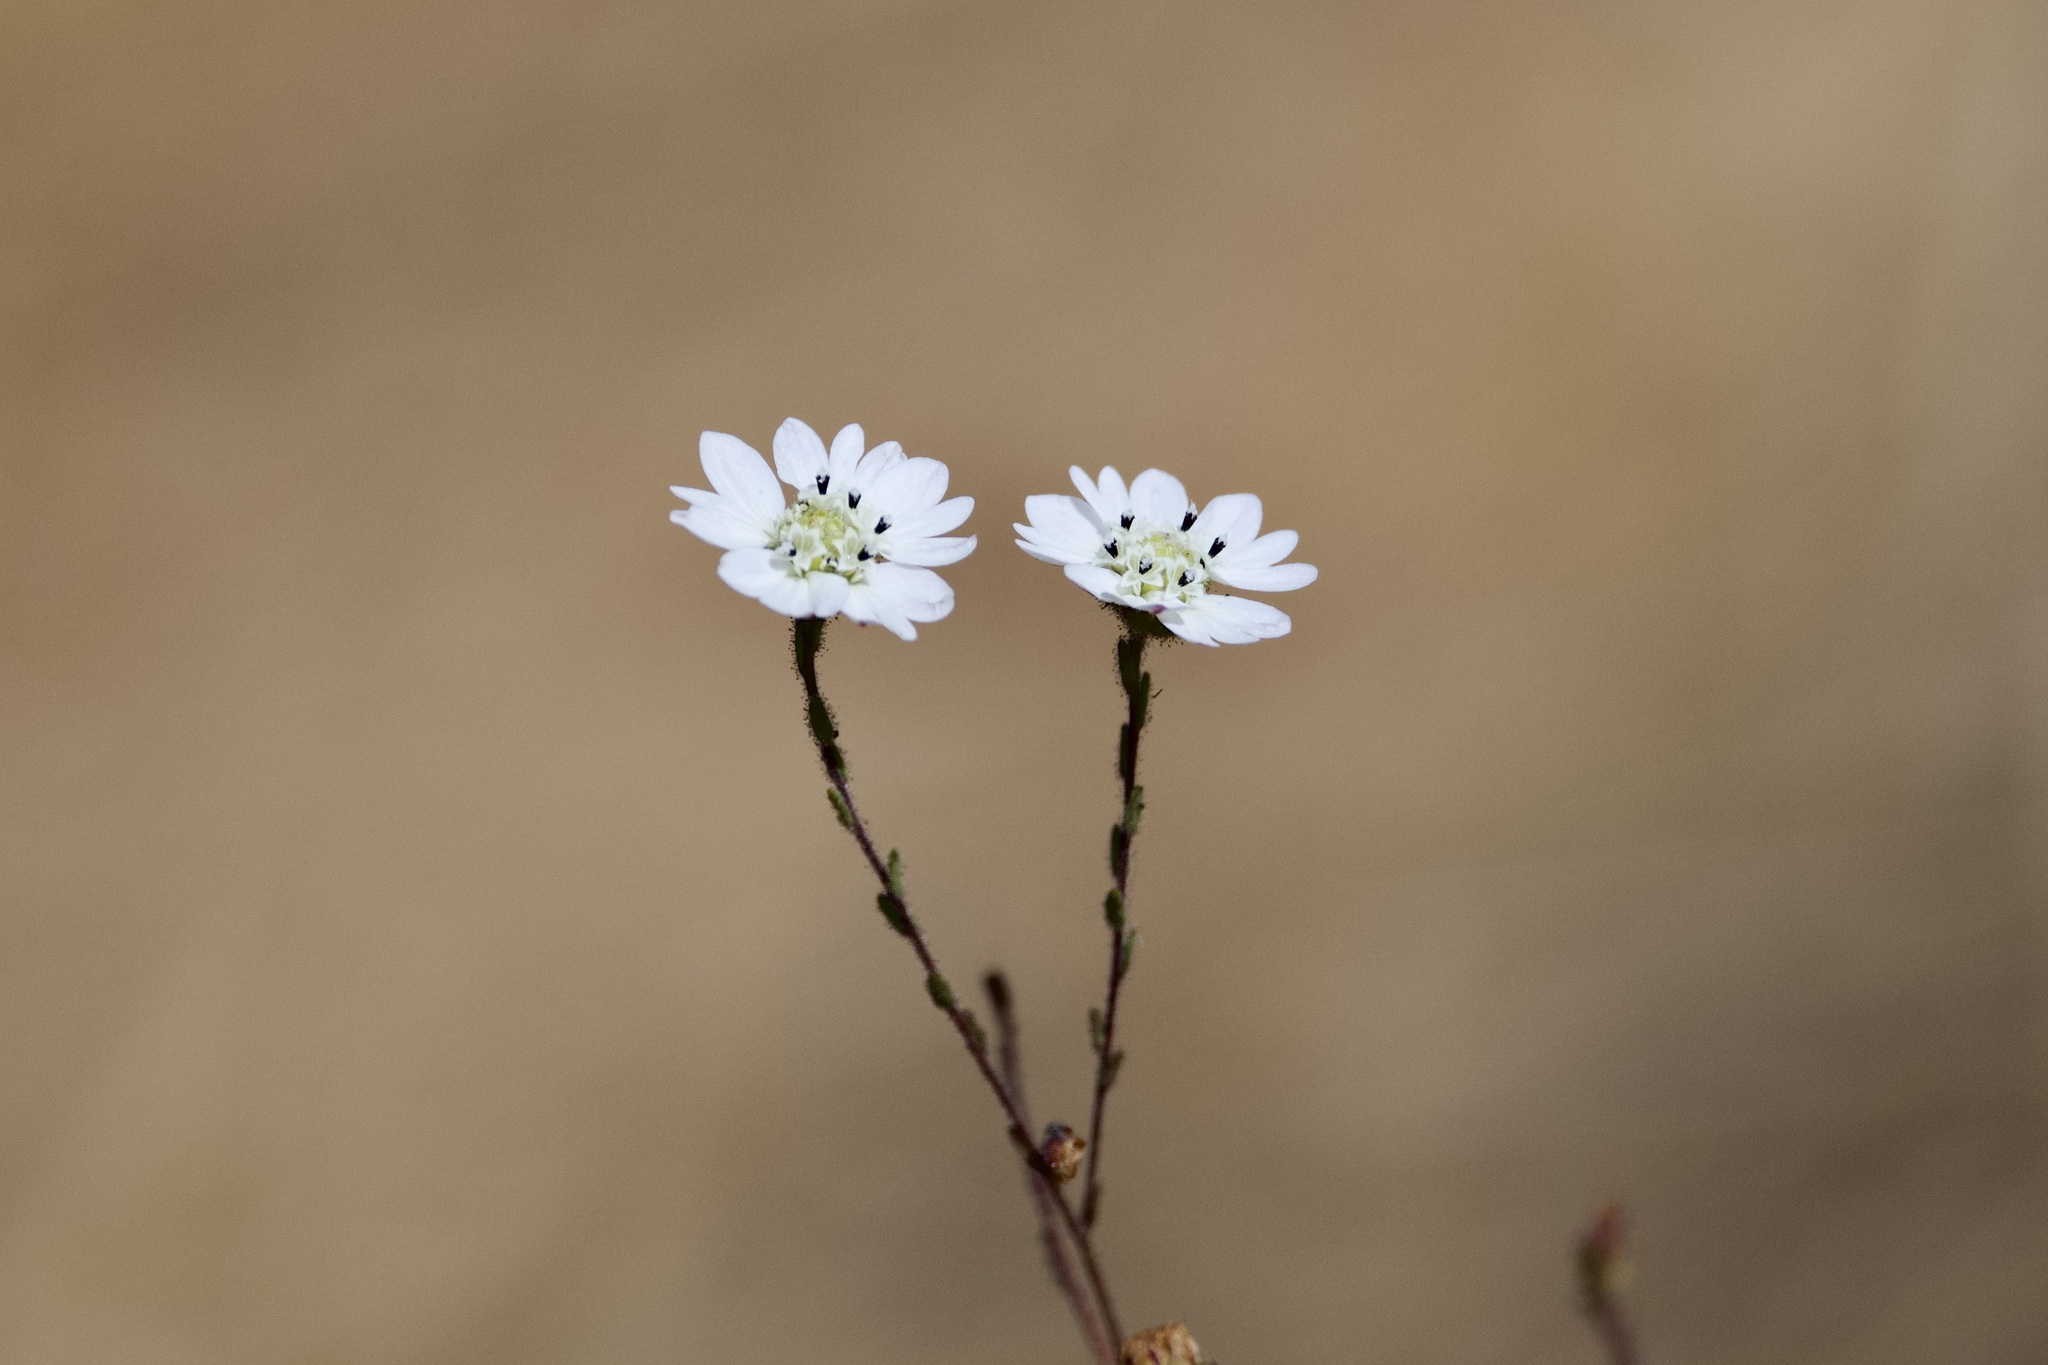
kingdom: Plantae
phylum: Tracheophyta
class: Magnoliopsida
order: Asterales
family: Asteraceae
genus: Hemizonia
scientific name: Hemizonia congesta
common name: Hayfield tarweed
